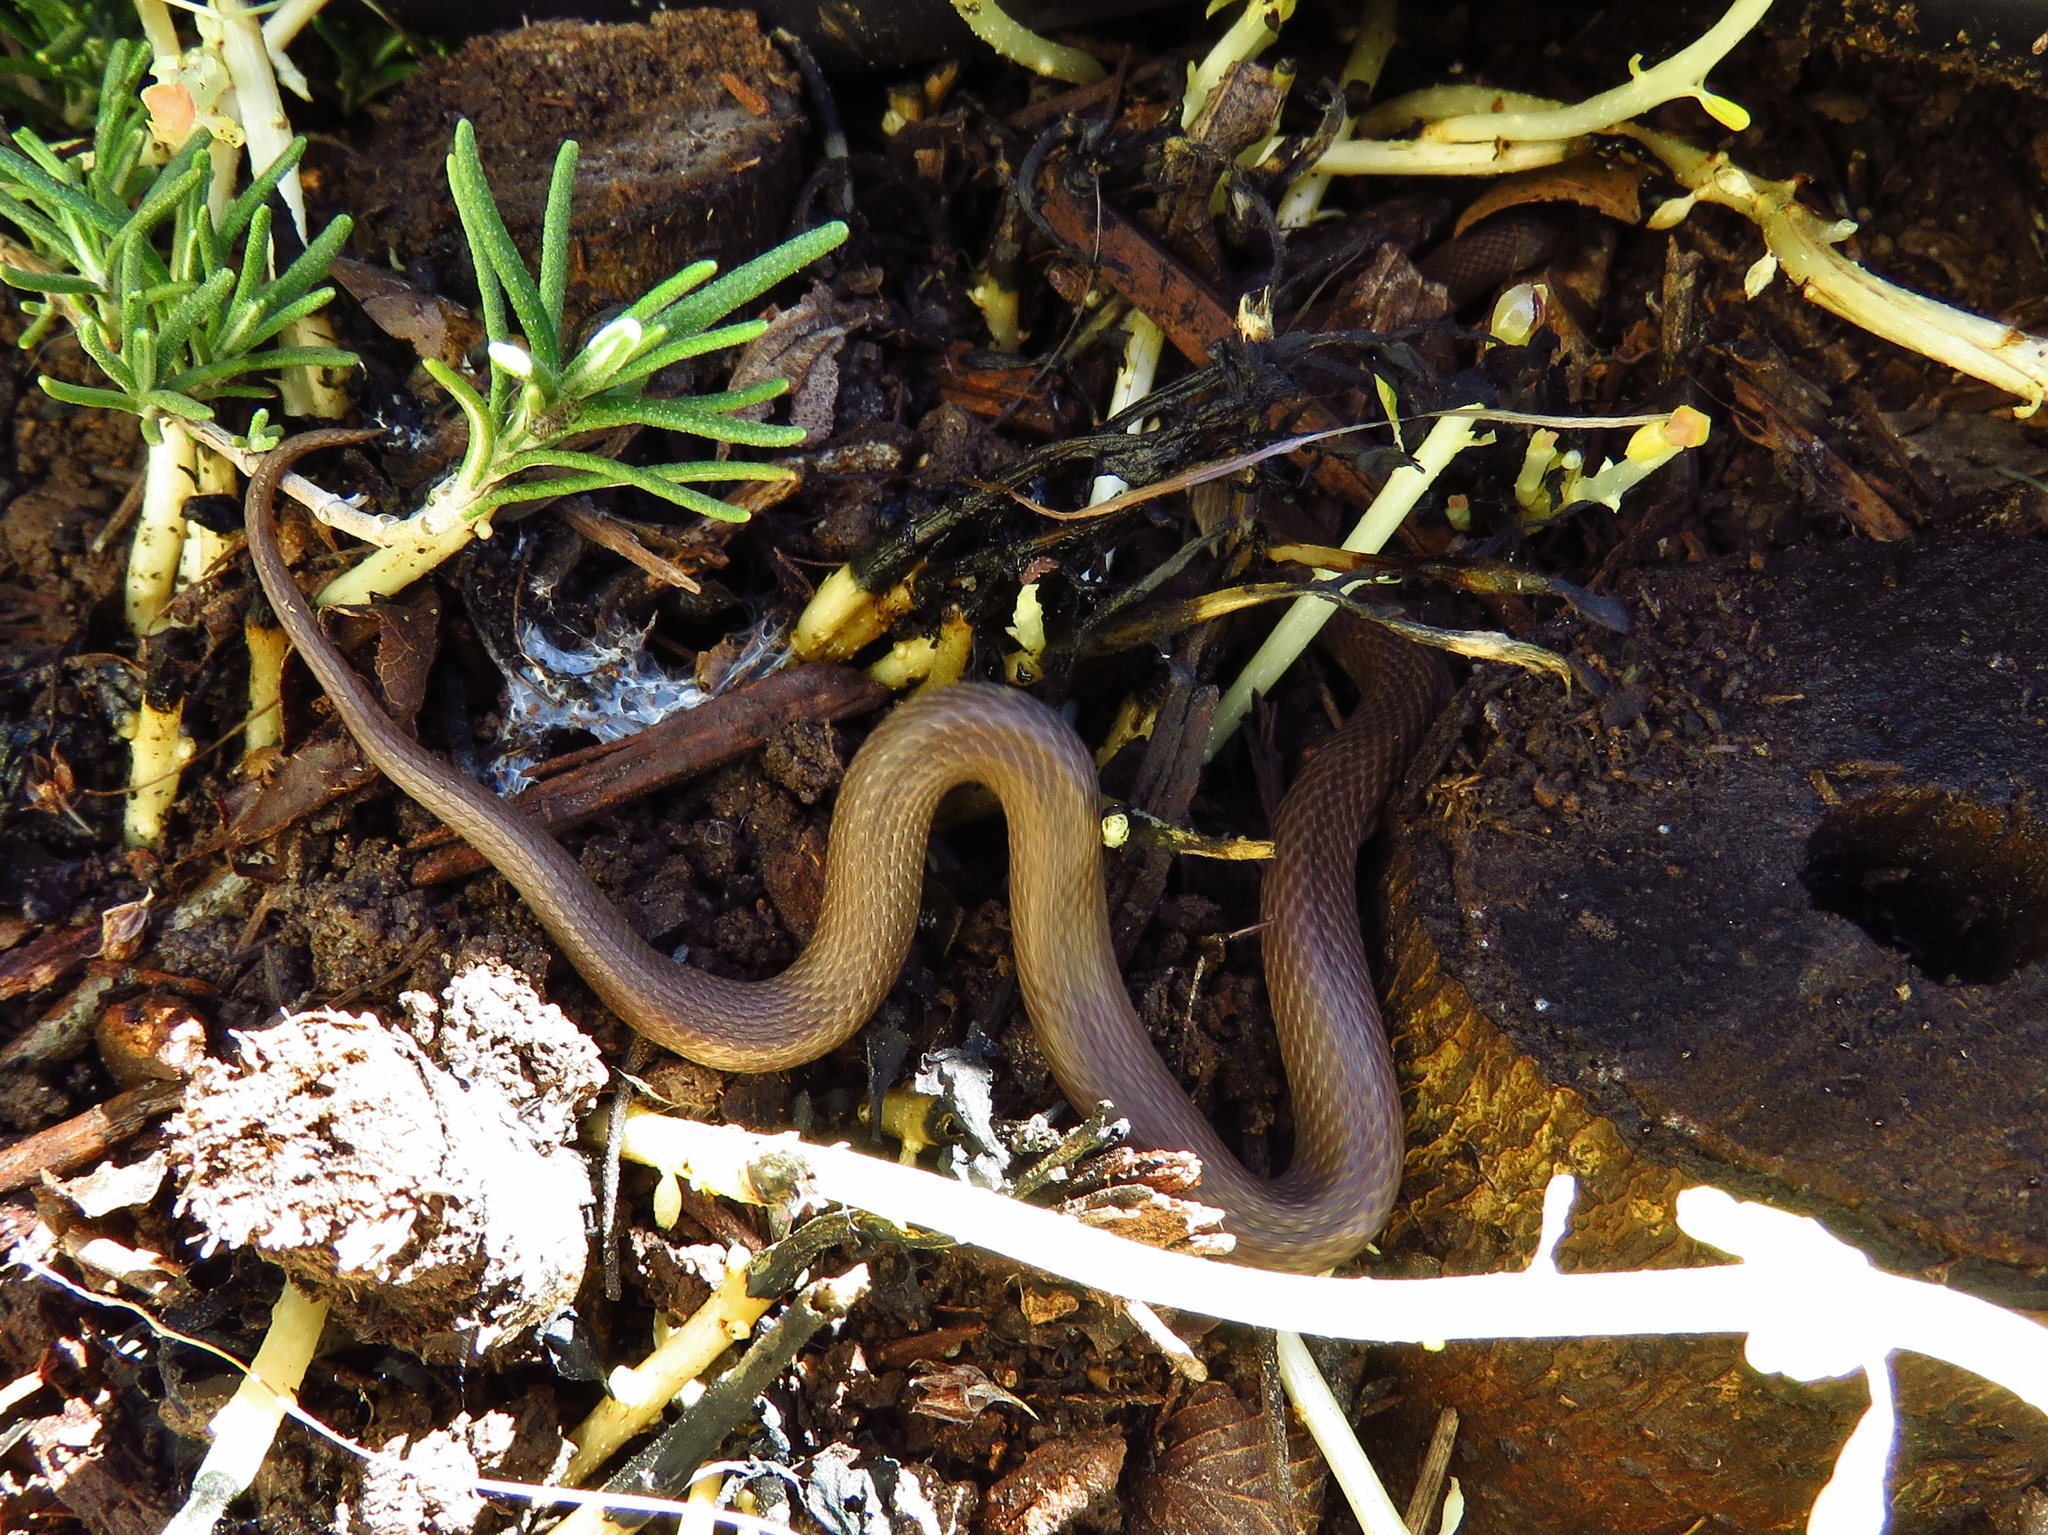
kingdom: Animalia
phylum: Chordata
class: Squamata
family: Colubridae
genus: Haldea
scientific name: Haldea striatula
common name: Rough earth snake
